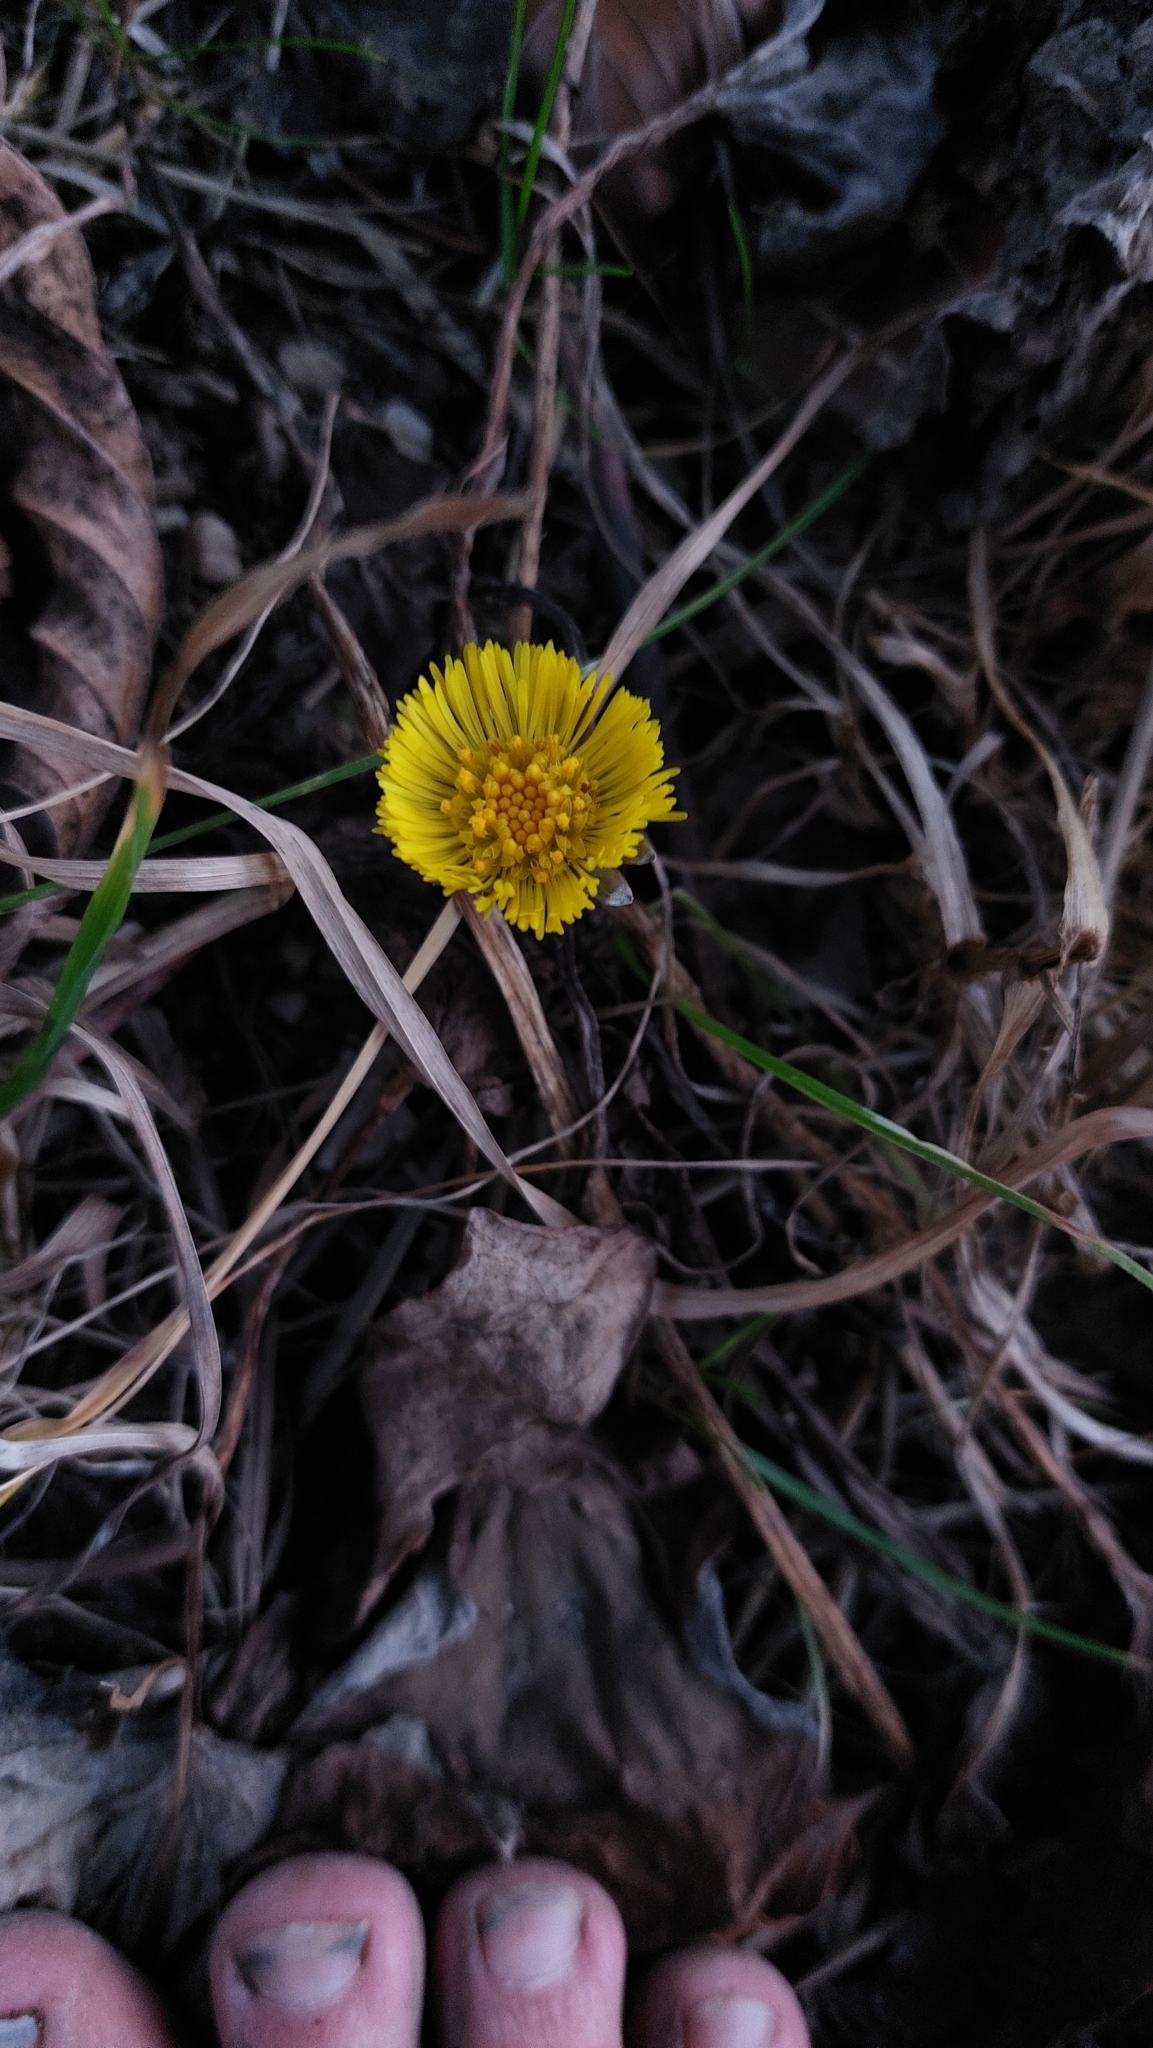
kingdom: Plantae
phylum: Tracheophyta
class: Magnoliopsida
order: Asterales
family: Asteraceae
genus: Tussilago
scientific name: Tussilago farfara
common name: Coltsfoot
